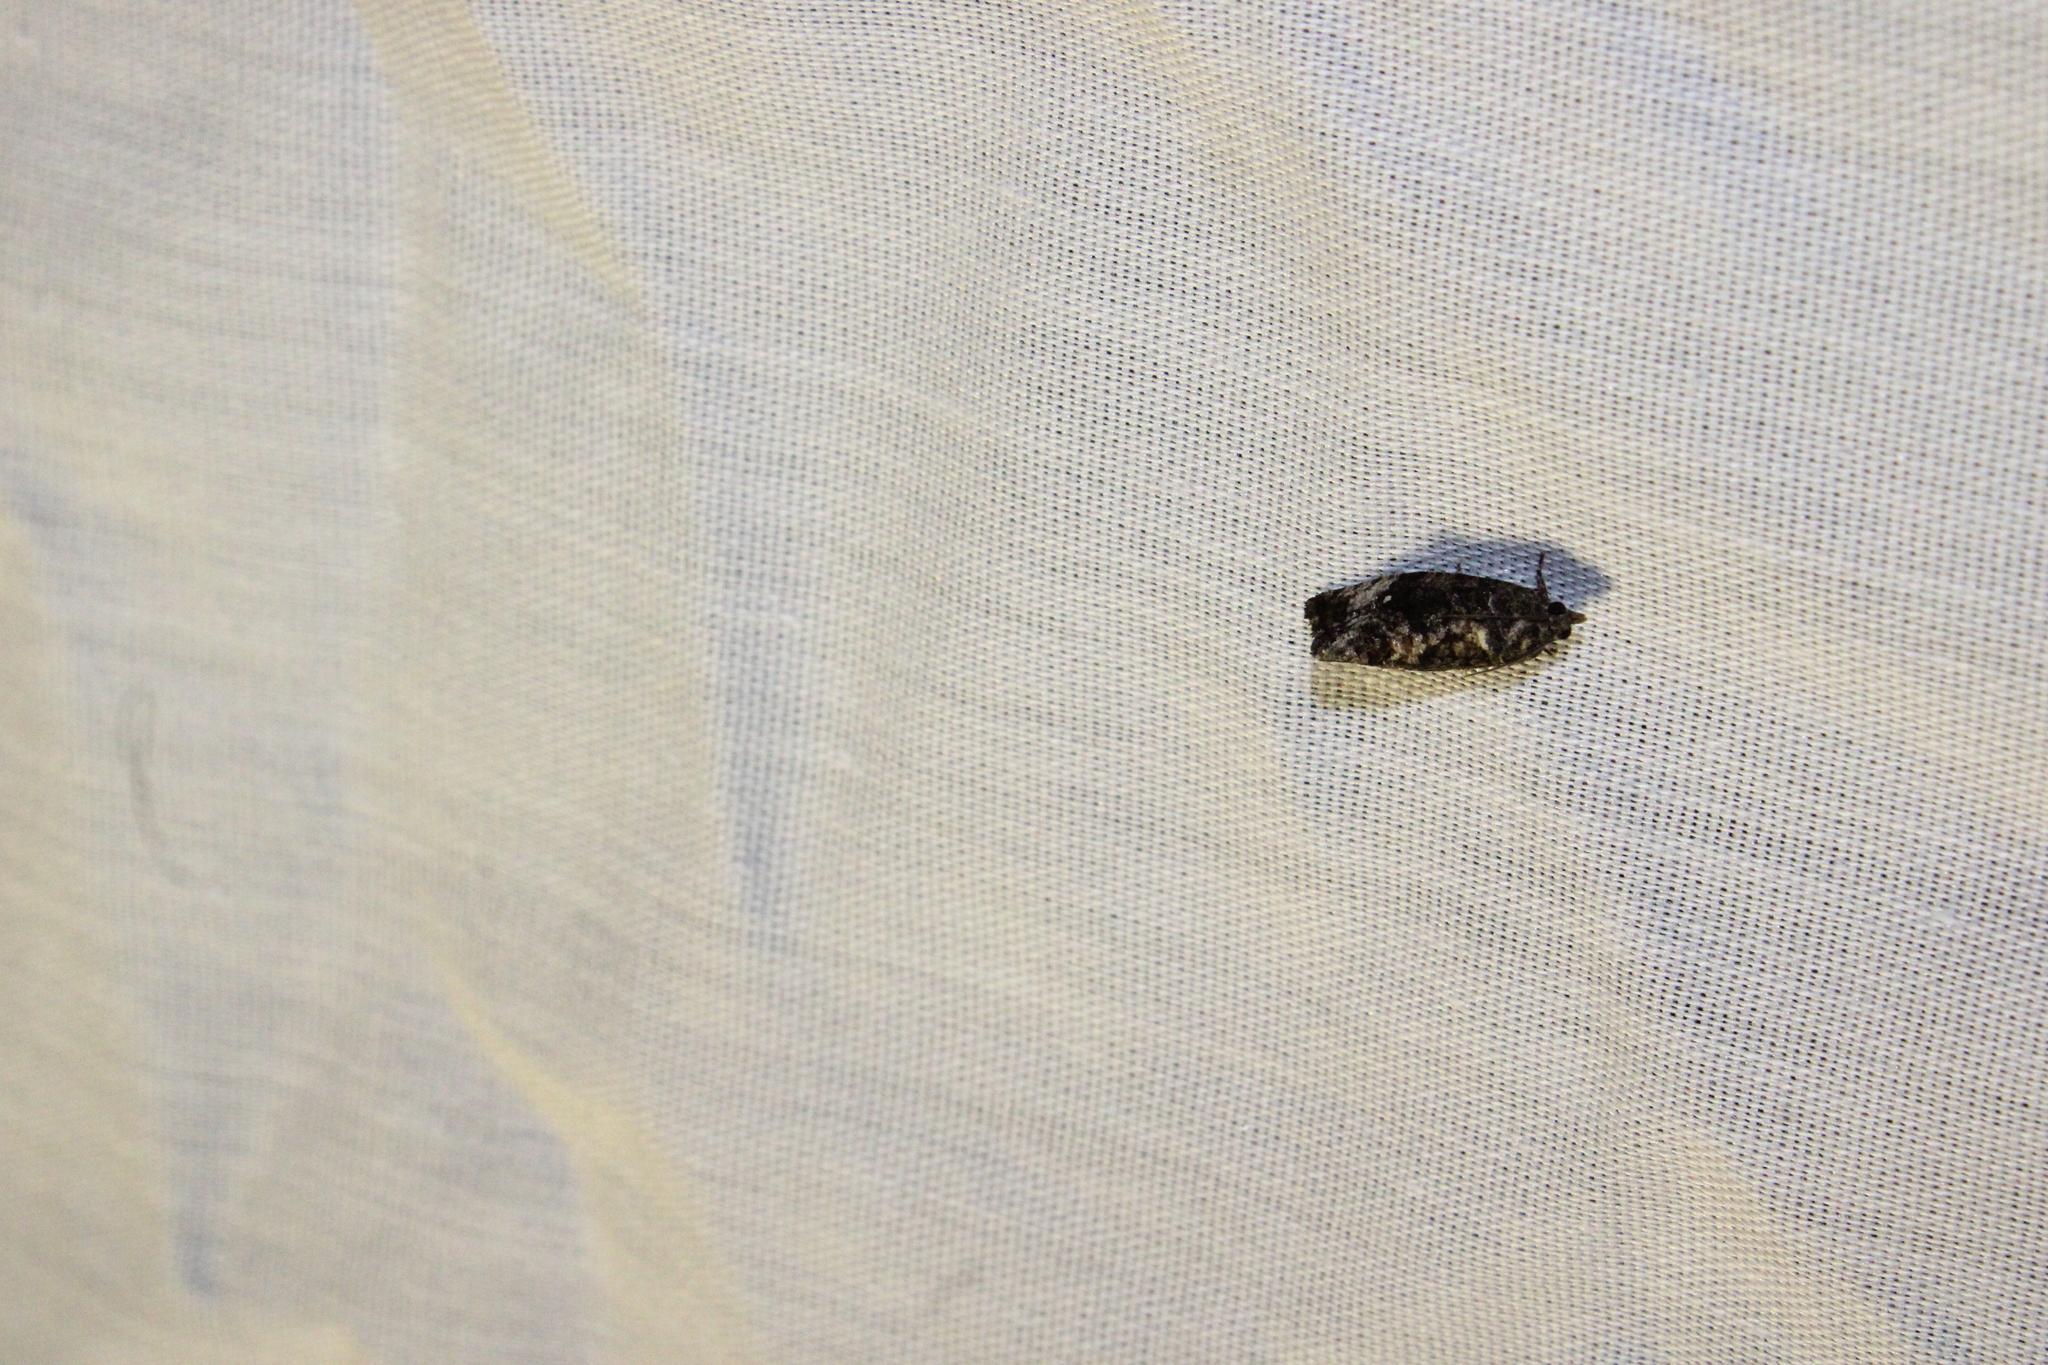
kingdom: Animalia
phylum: Arthropoda
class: Insecta
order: Lepidoptera
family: Tortricidae
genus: Gymnandrosoma
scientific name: Gymnandrosoma punctidiscanum
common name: Dotted ecdytolopha moth
